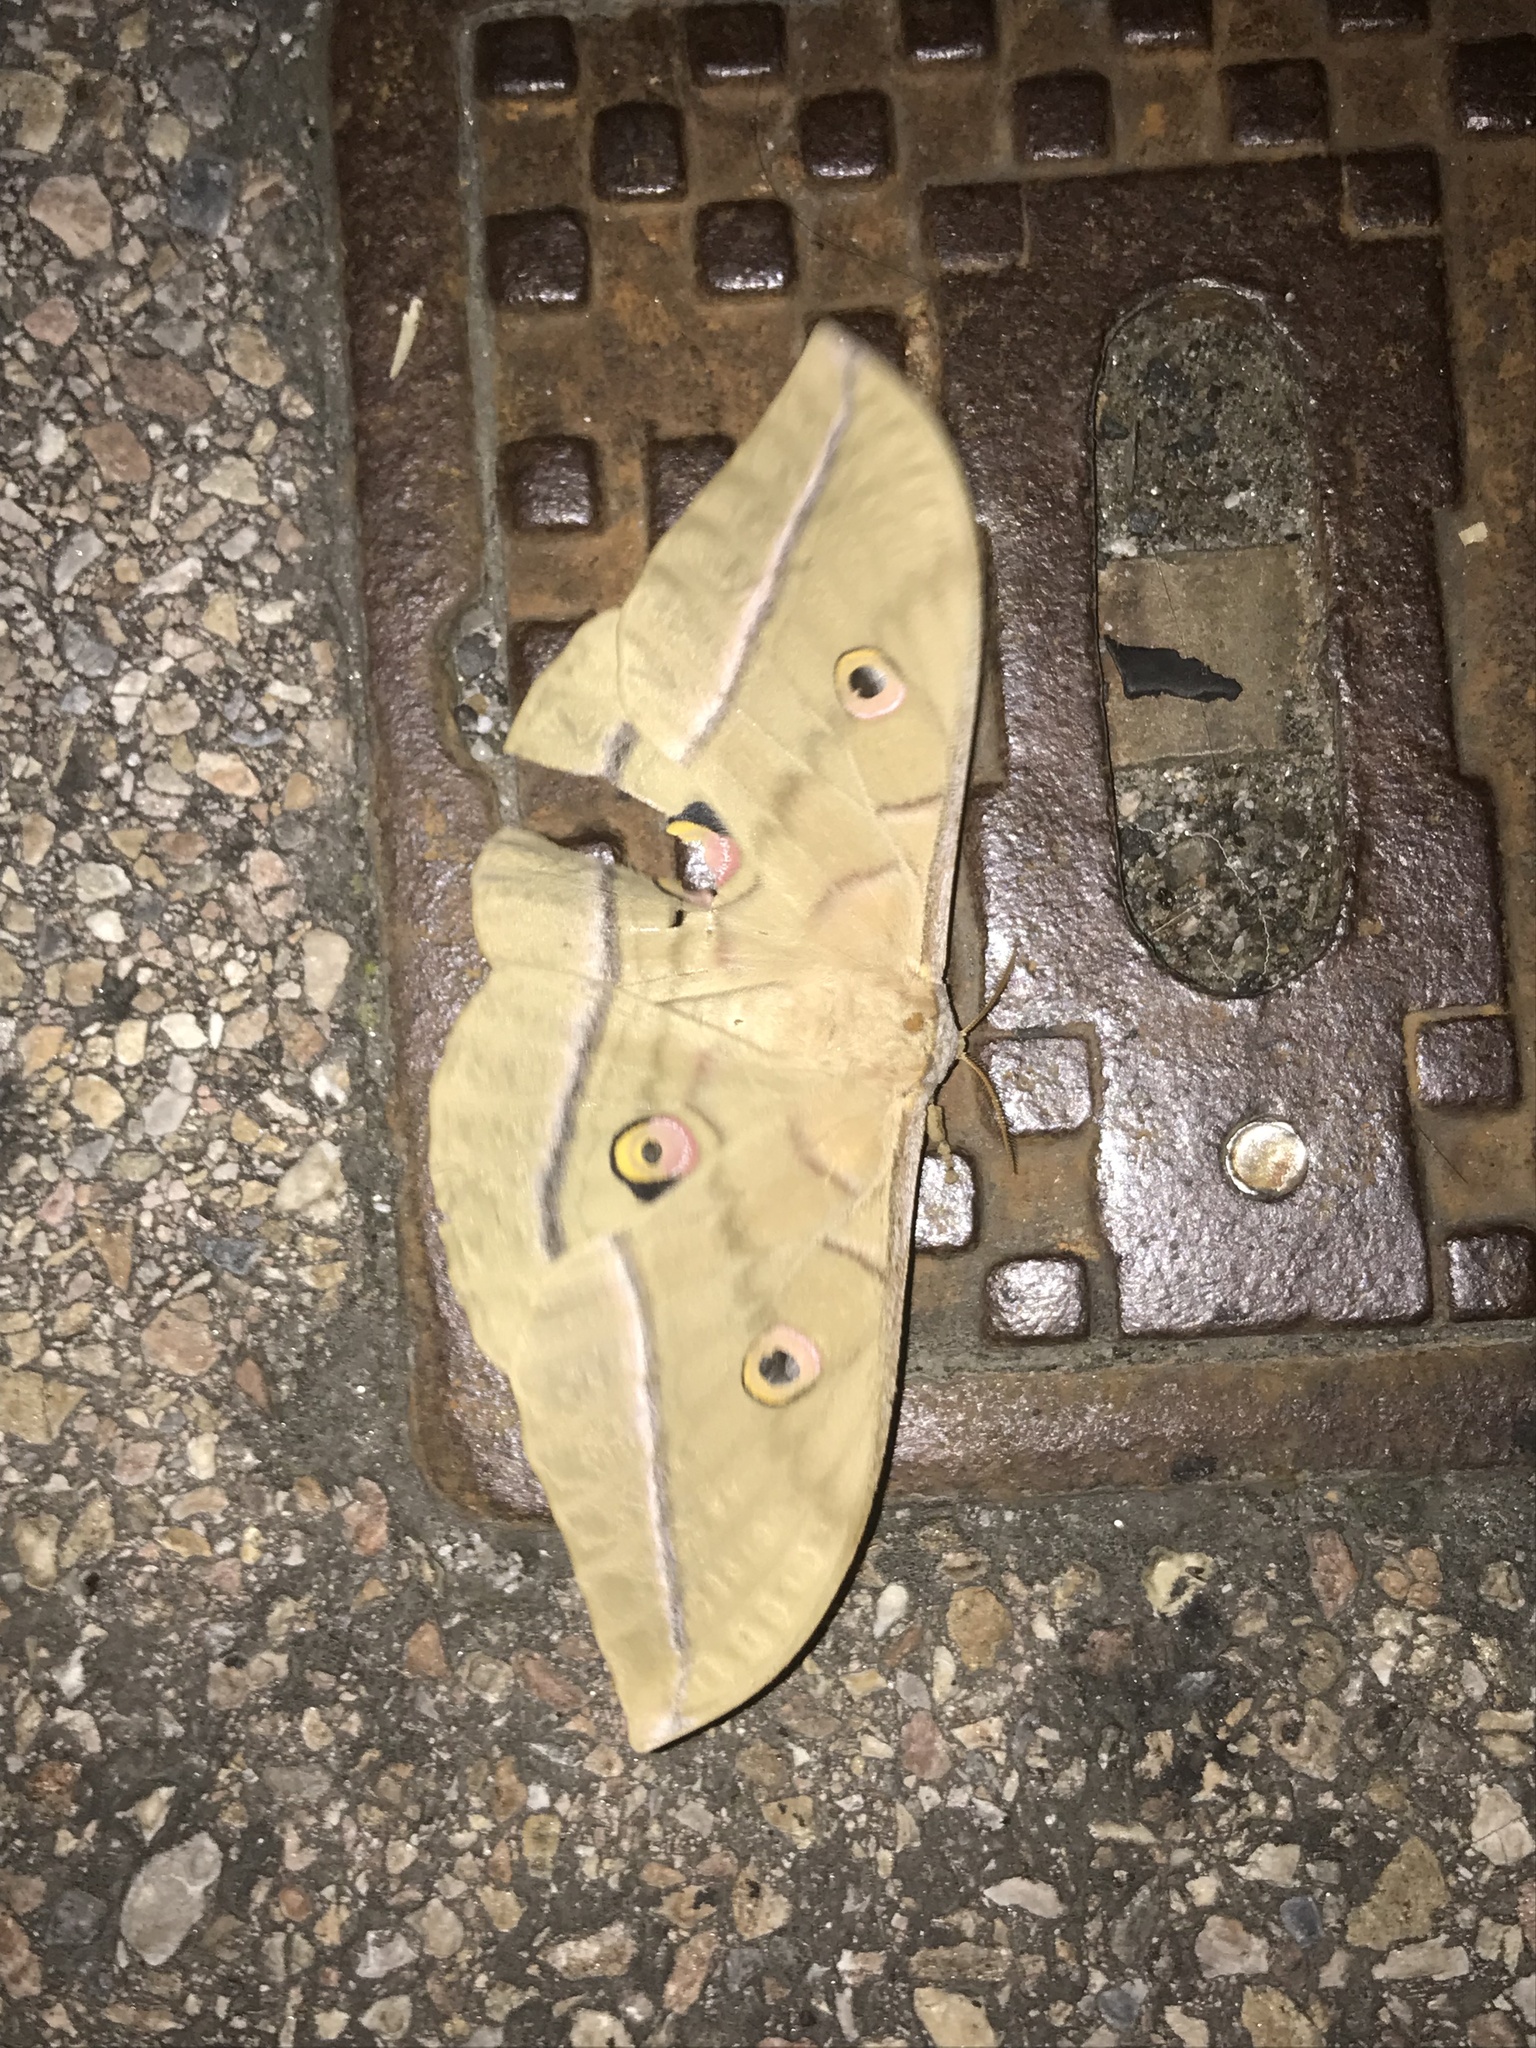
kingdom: Animalia
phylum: Arthropoda
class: Insecta
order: Lepidoptera
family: Saturniidae
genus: Antheraea
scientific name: Antheraea yamamai
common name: Japanese oak silk moth
